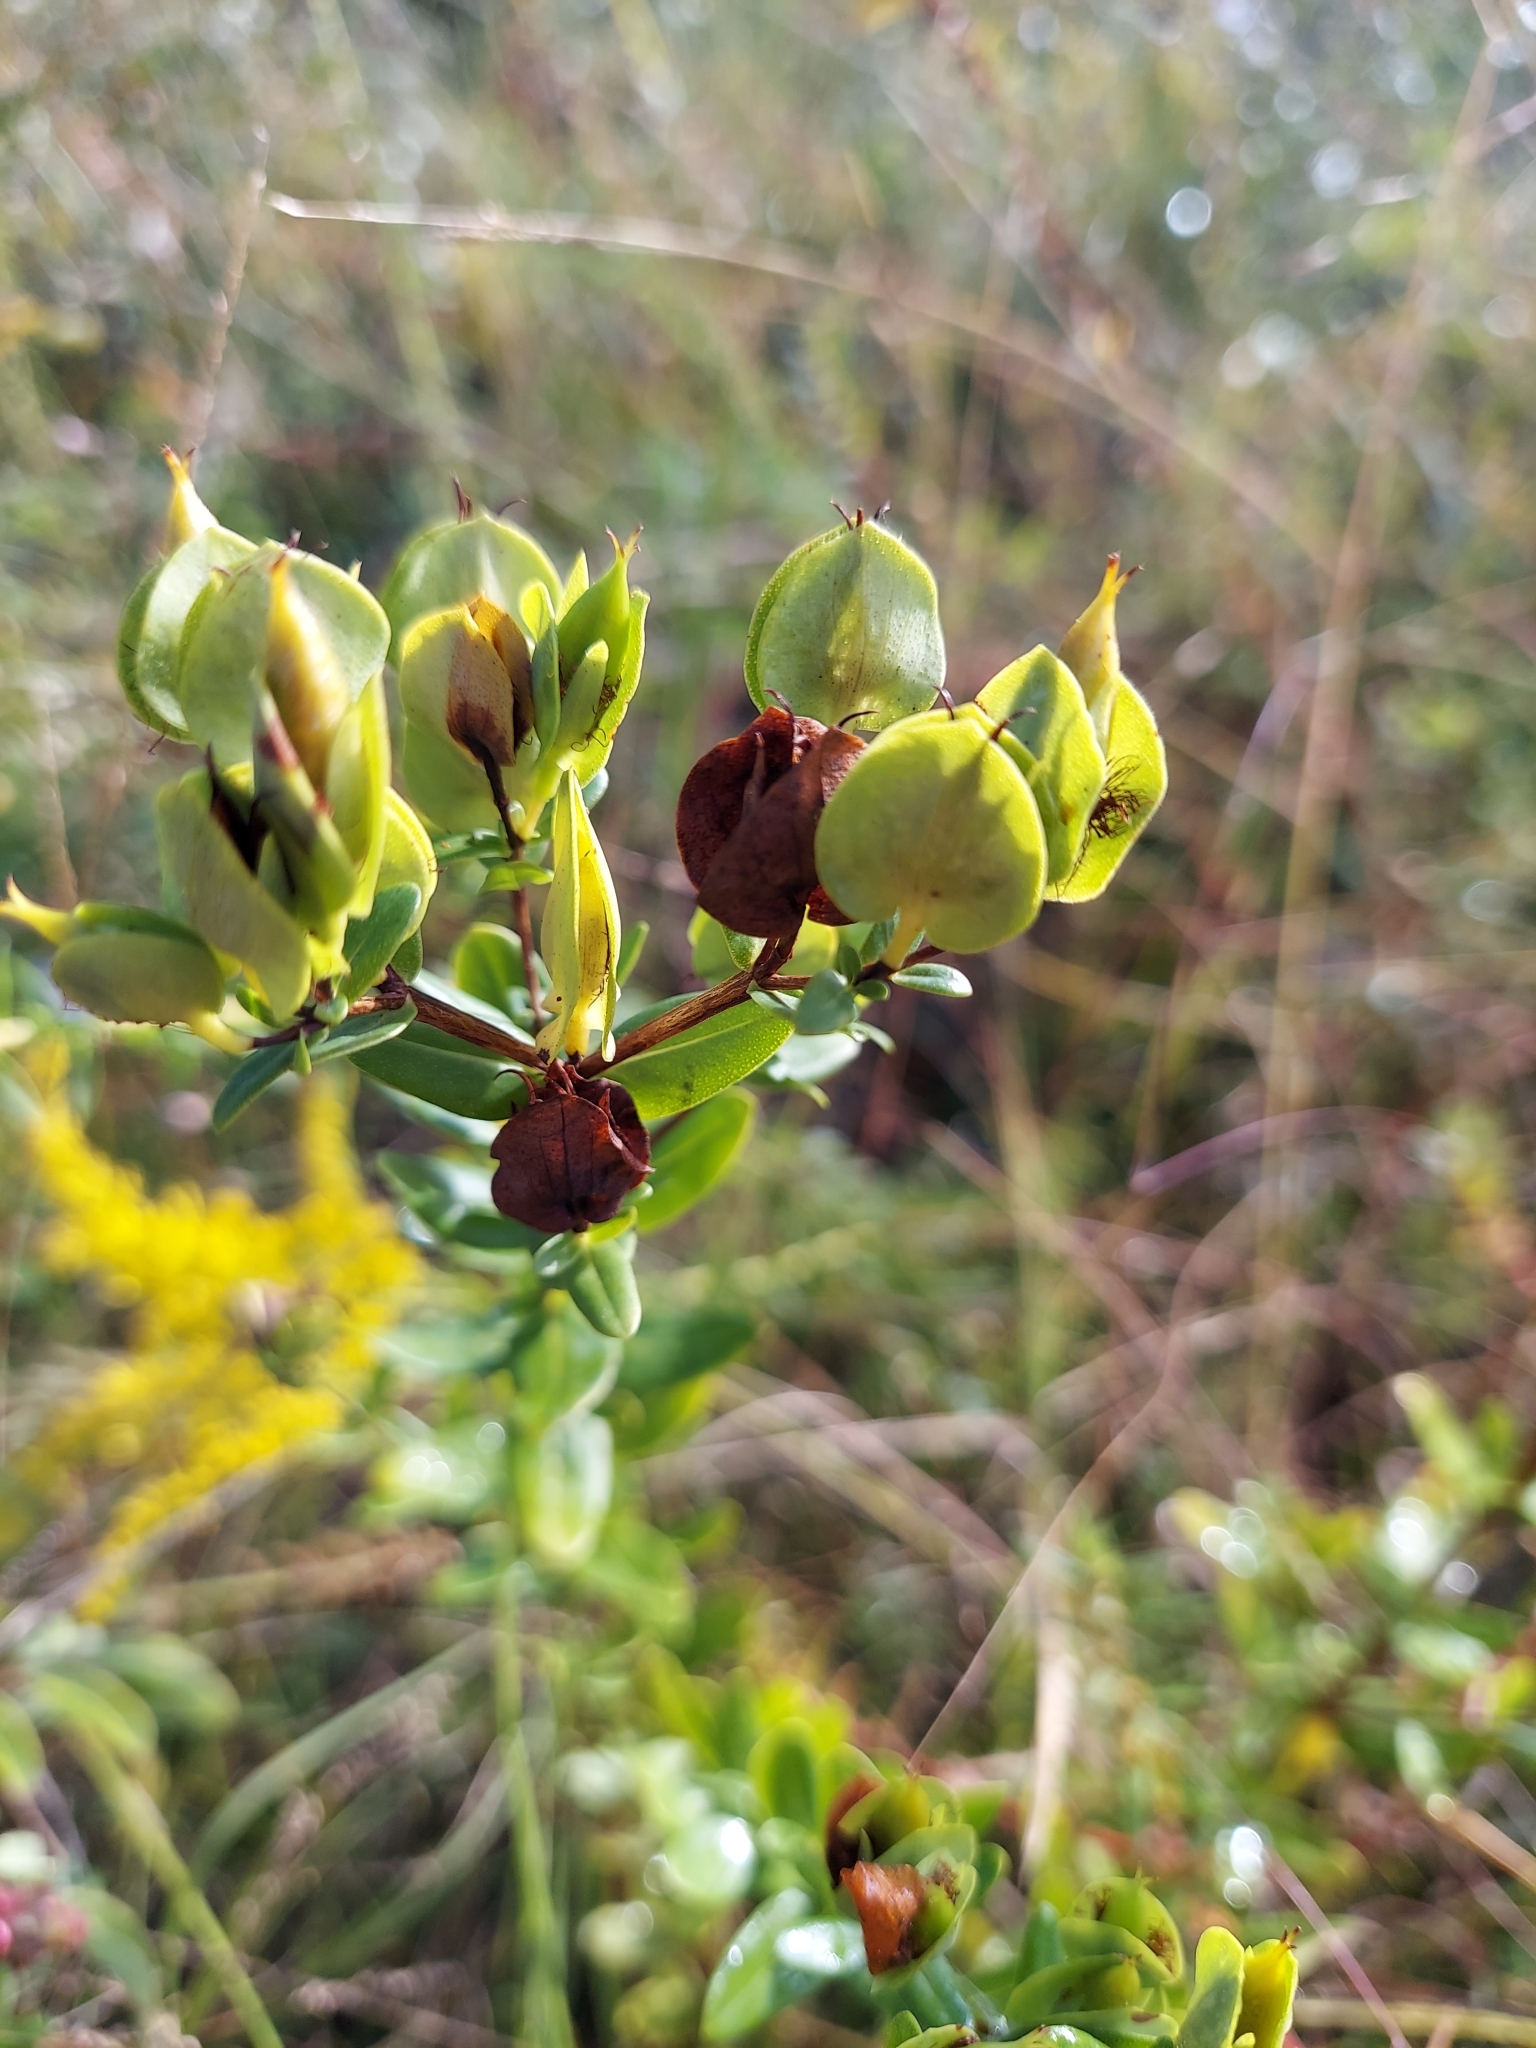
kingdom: Plantae
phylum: Tracheophyta
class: Magnoliopsida
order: Malpighiales
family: Hypericaceae
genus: Hypericum
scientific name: Hypericum crux-andreae
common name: St.-peter's-wort
